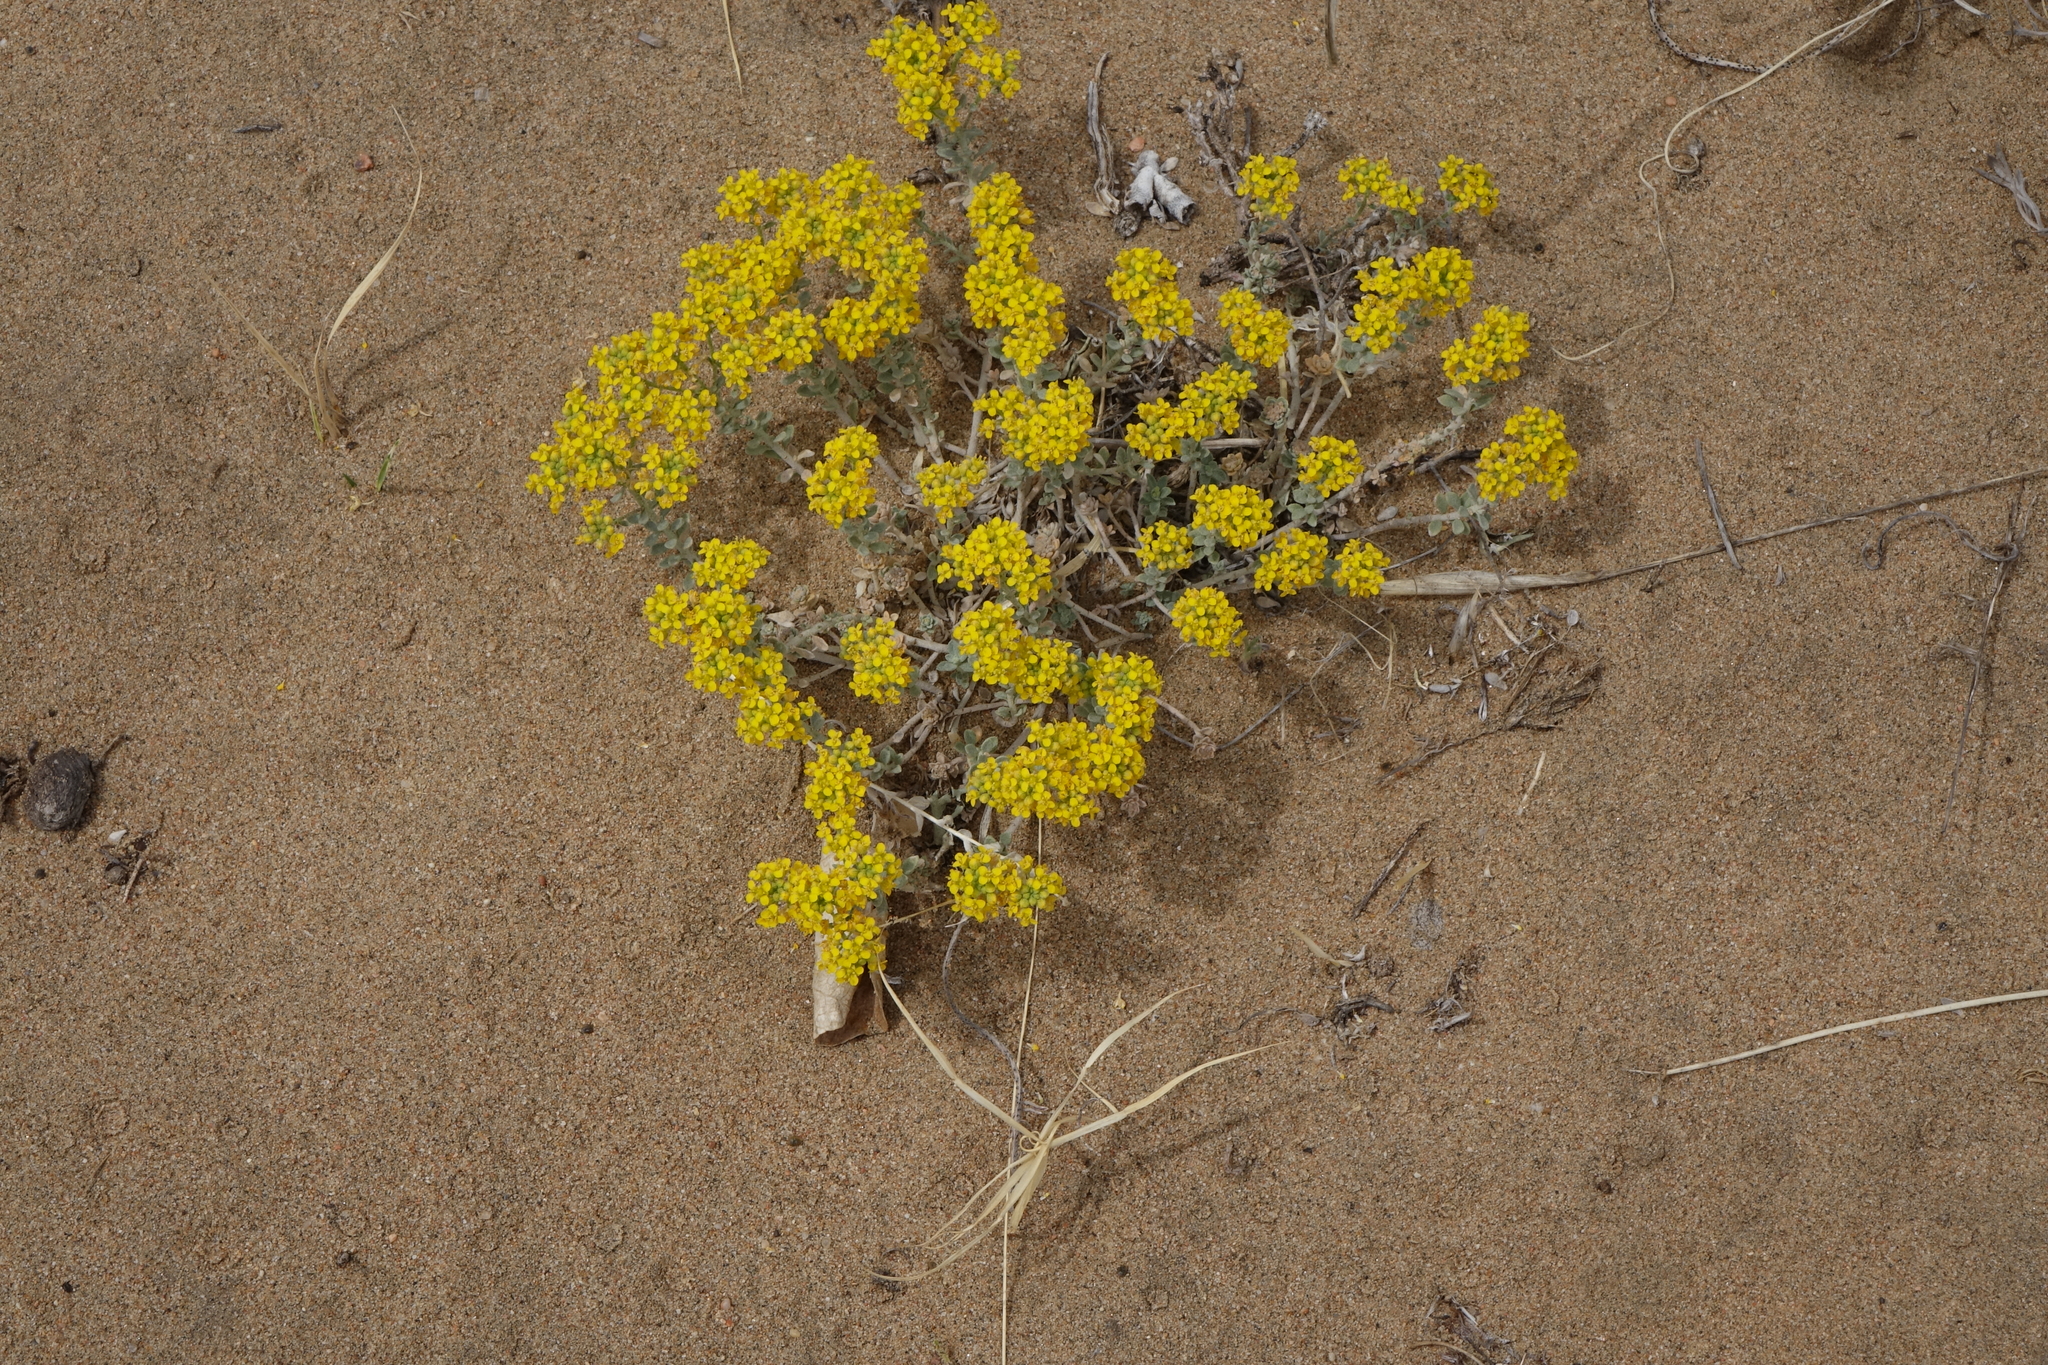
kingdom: Plantae
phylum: Tracheophyta
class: Magnoliopsida
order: Brassicales
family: Brassicaceae
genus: Odontarrhena
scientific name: Odontarrhena obovata
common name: American alyssum
